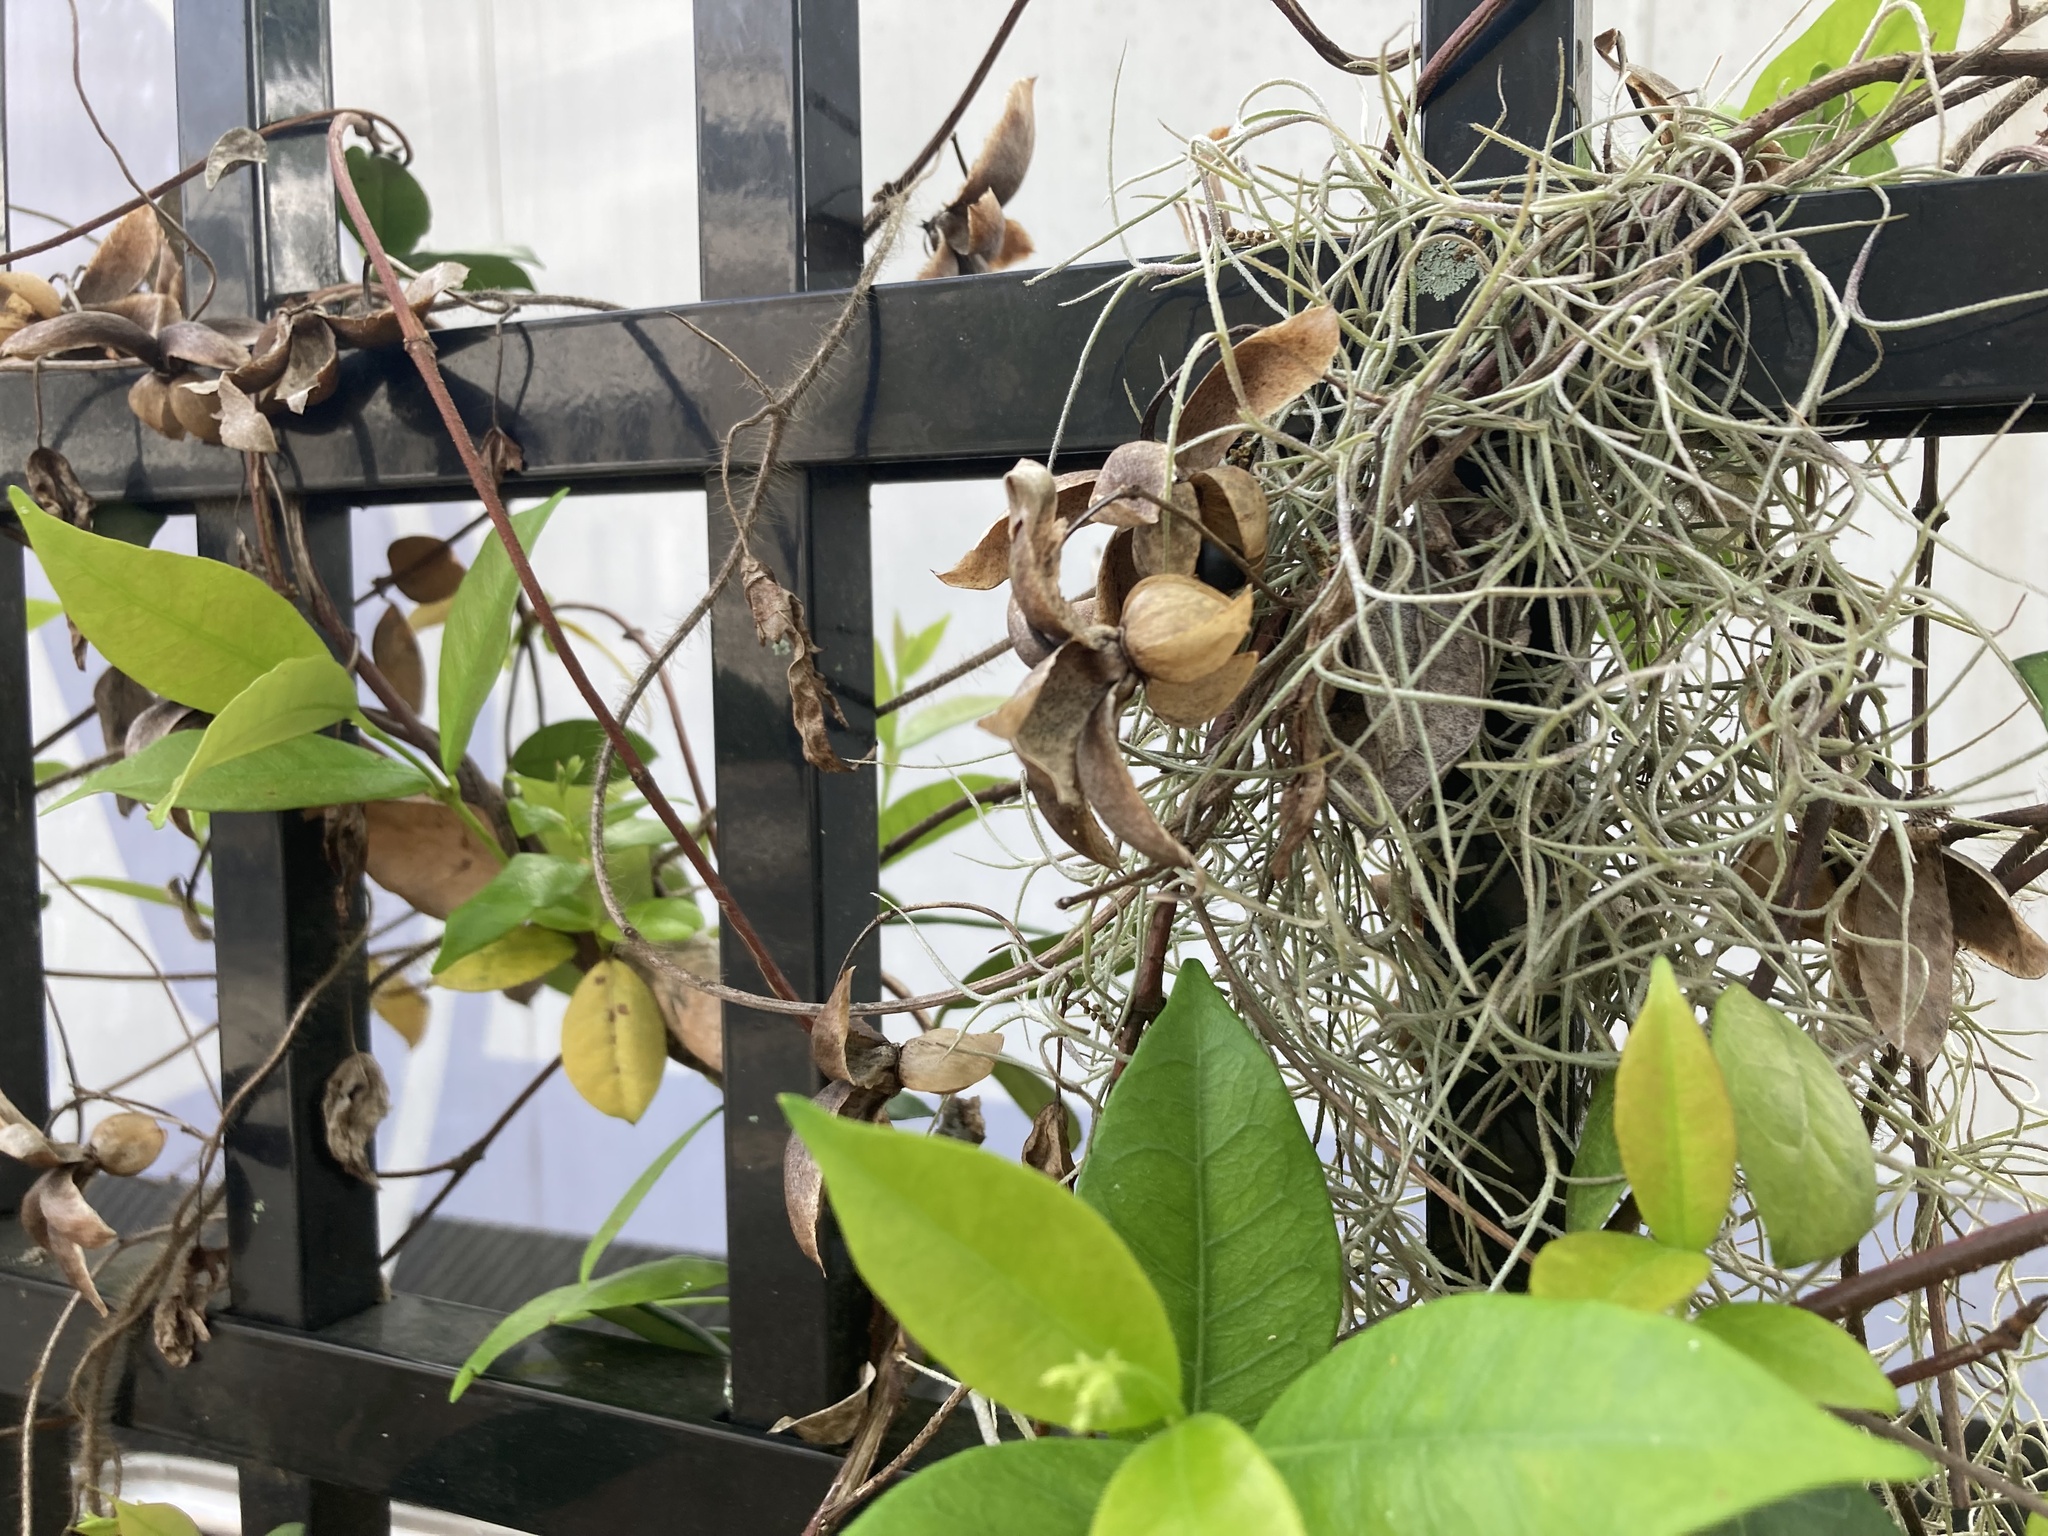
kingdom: Plantae
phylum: Tracheophyta
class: Magnoliopsida
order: Solanales
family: Convolvulaceae
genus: Distimake
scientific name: Distimake dissectus
